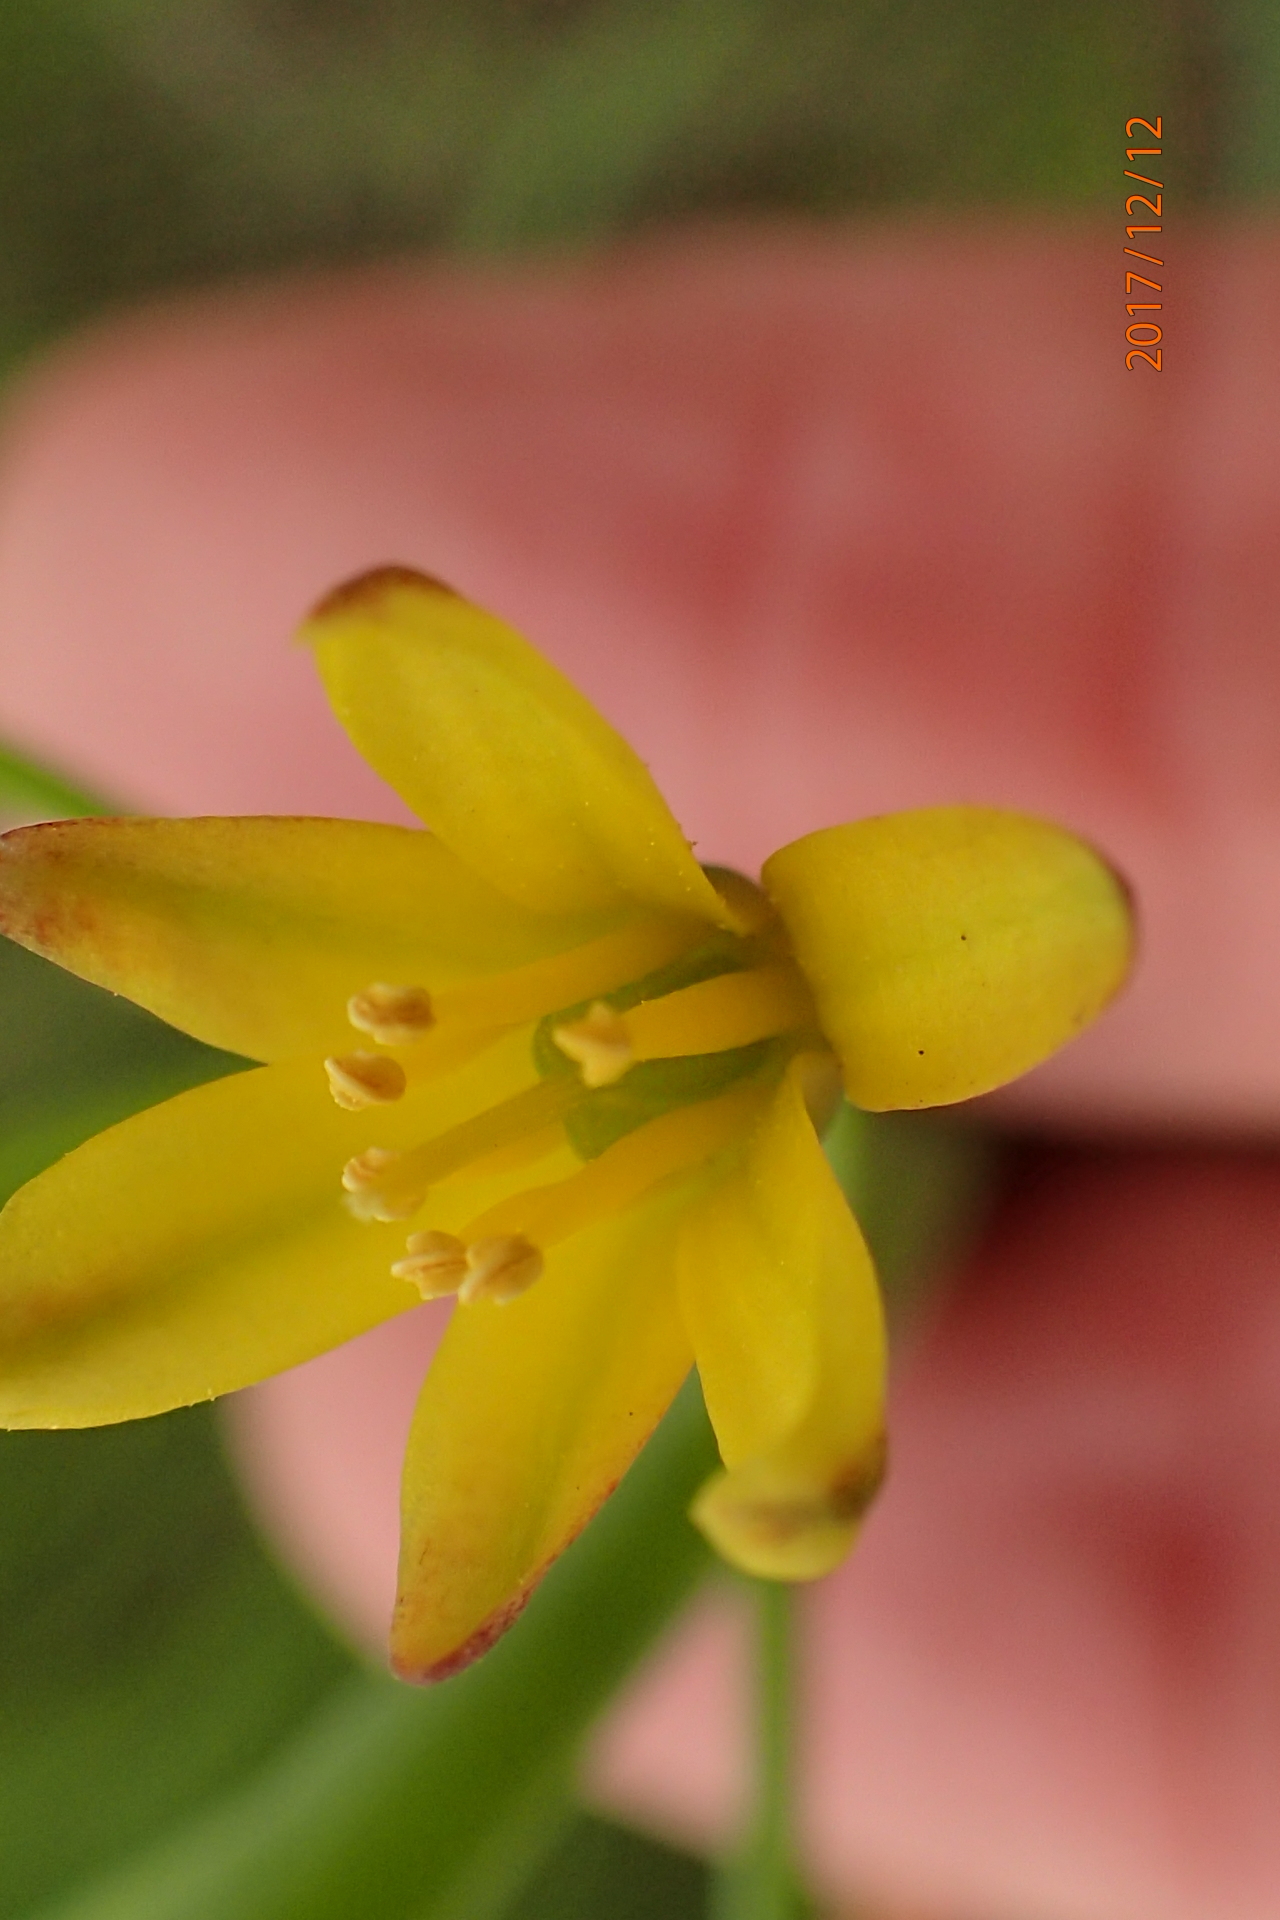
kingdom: Plantae
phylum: Tracheophyta
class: Liliopsida
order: Asparagales
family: Asparagaceae
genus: Eriospermum
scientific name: Eriospermum mackenii
